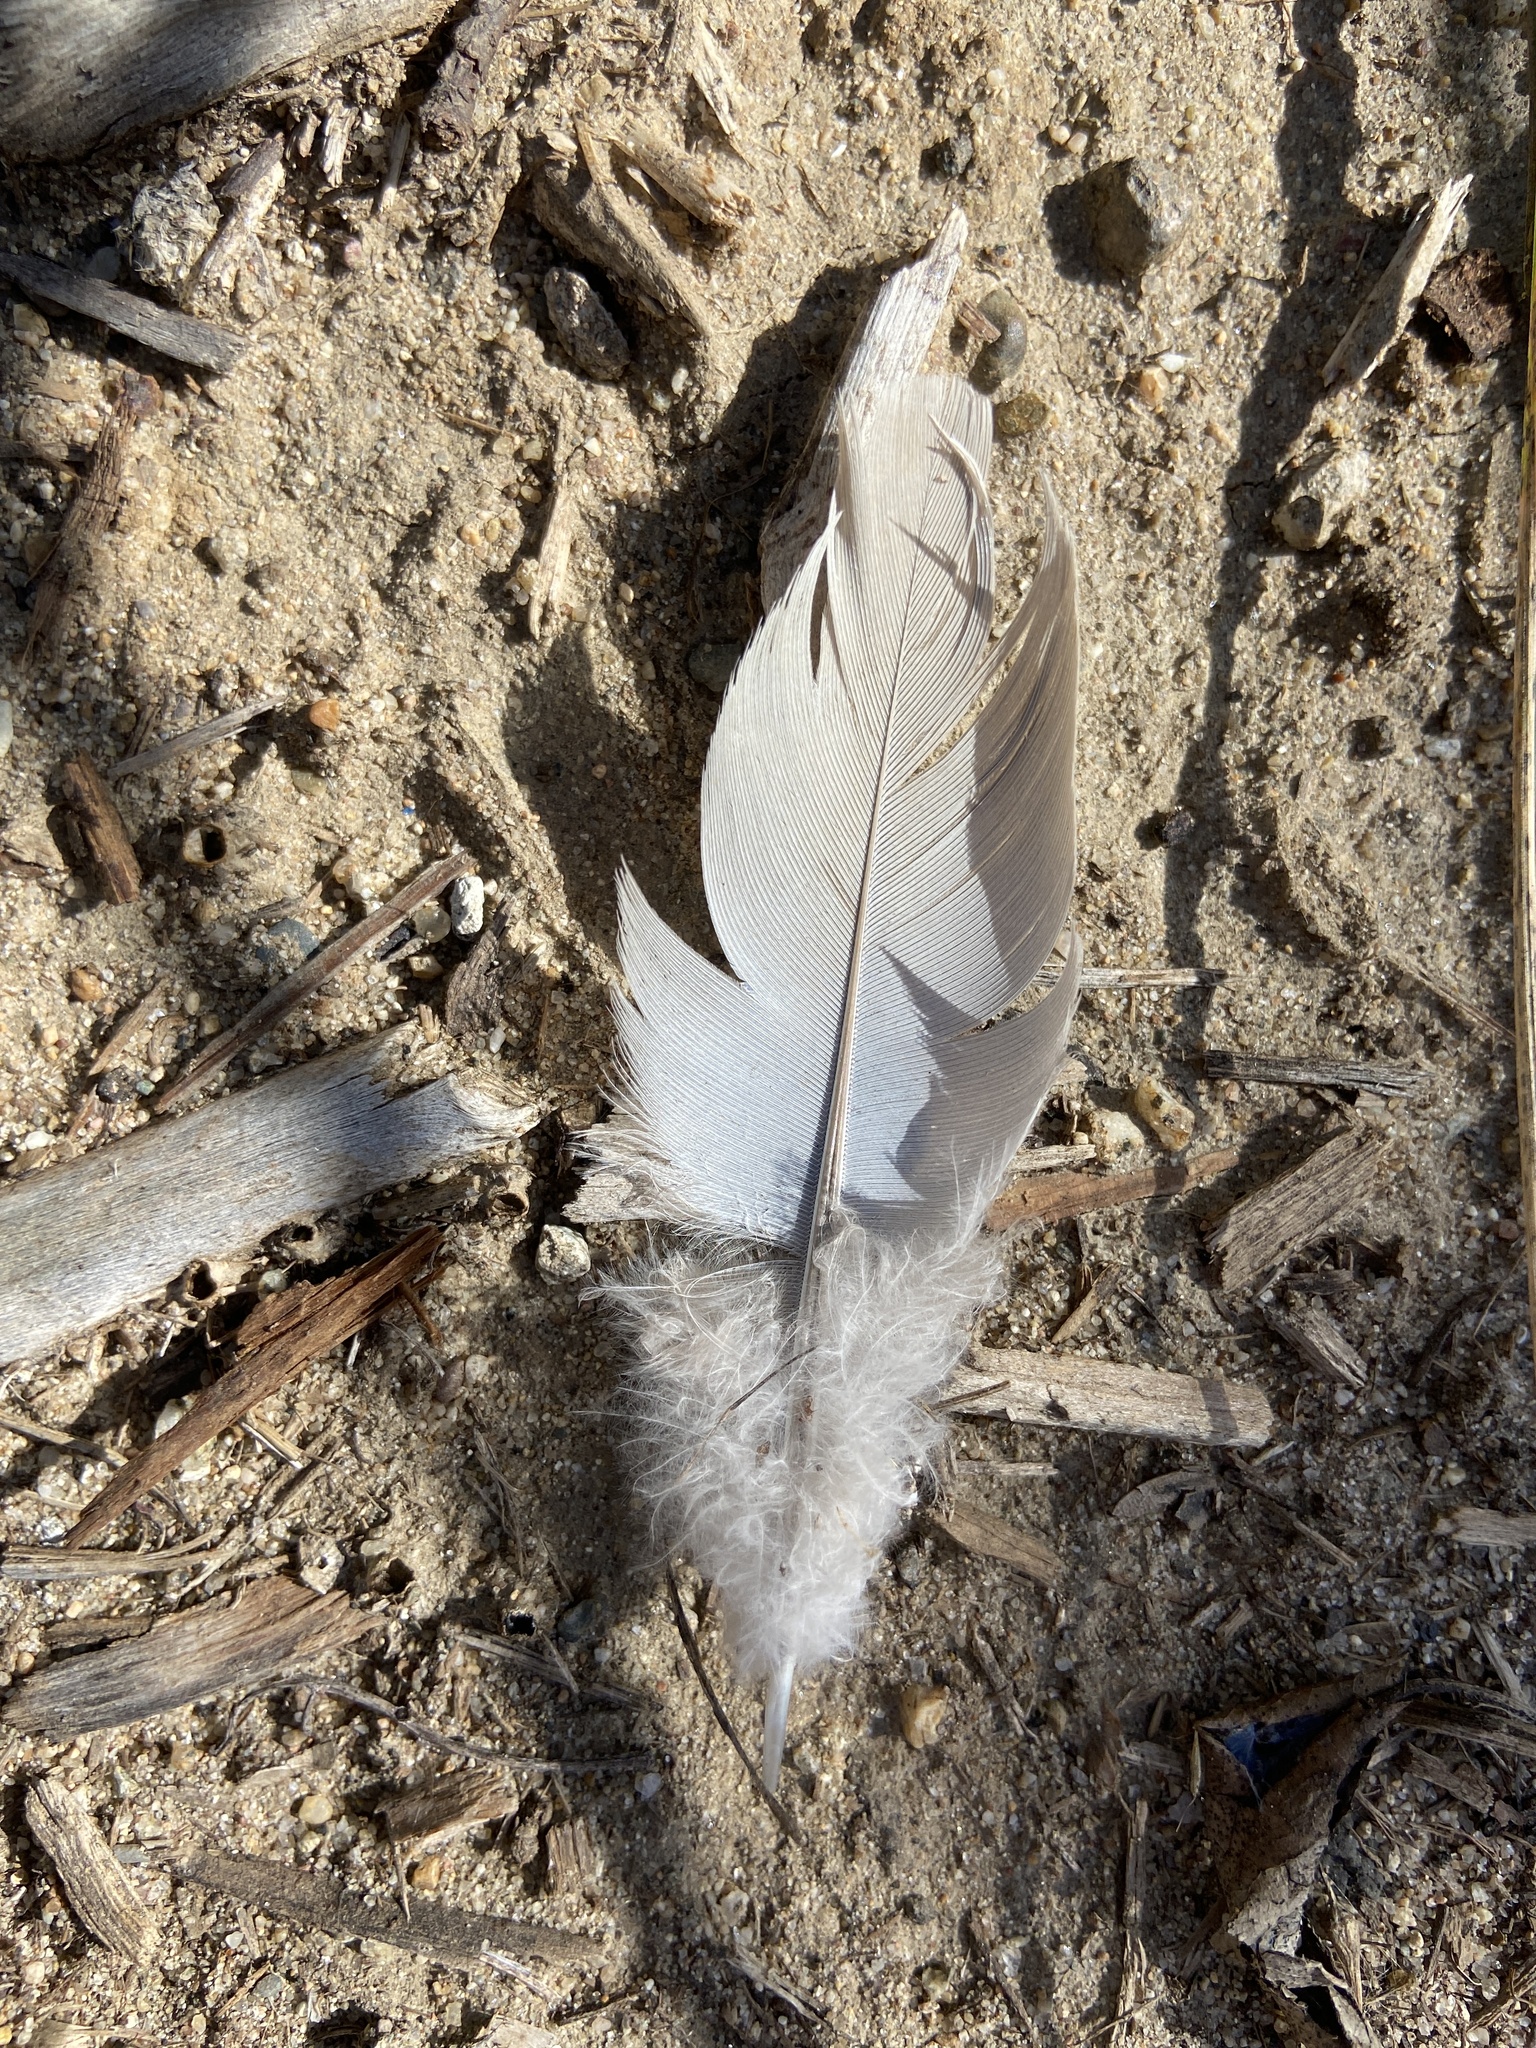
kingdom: Animalia
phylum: Chordata
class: Aves
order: Columbiformes
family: Columbidae
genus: Zenaida
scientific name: Zenaida macroura
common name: Mourning dove
